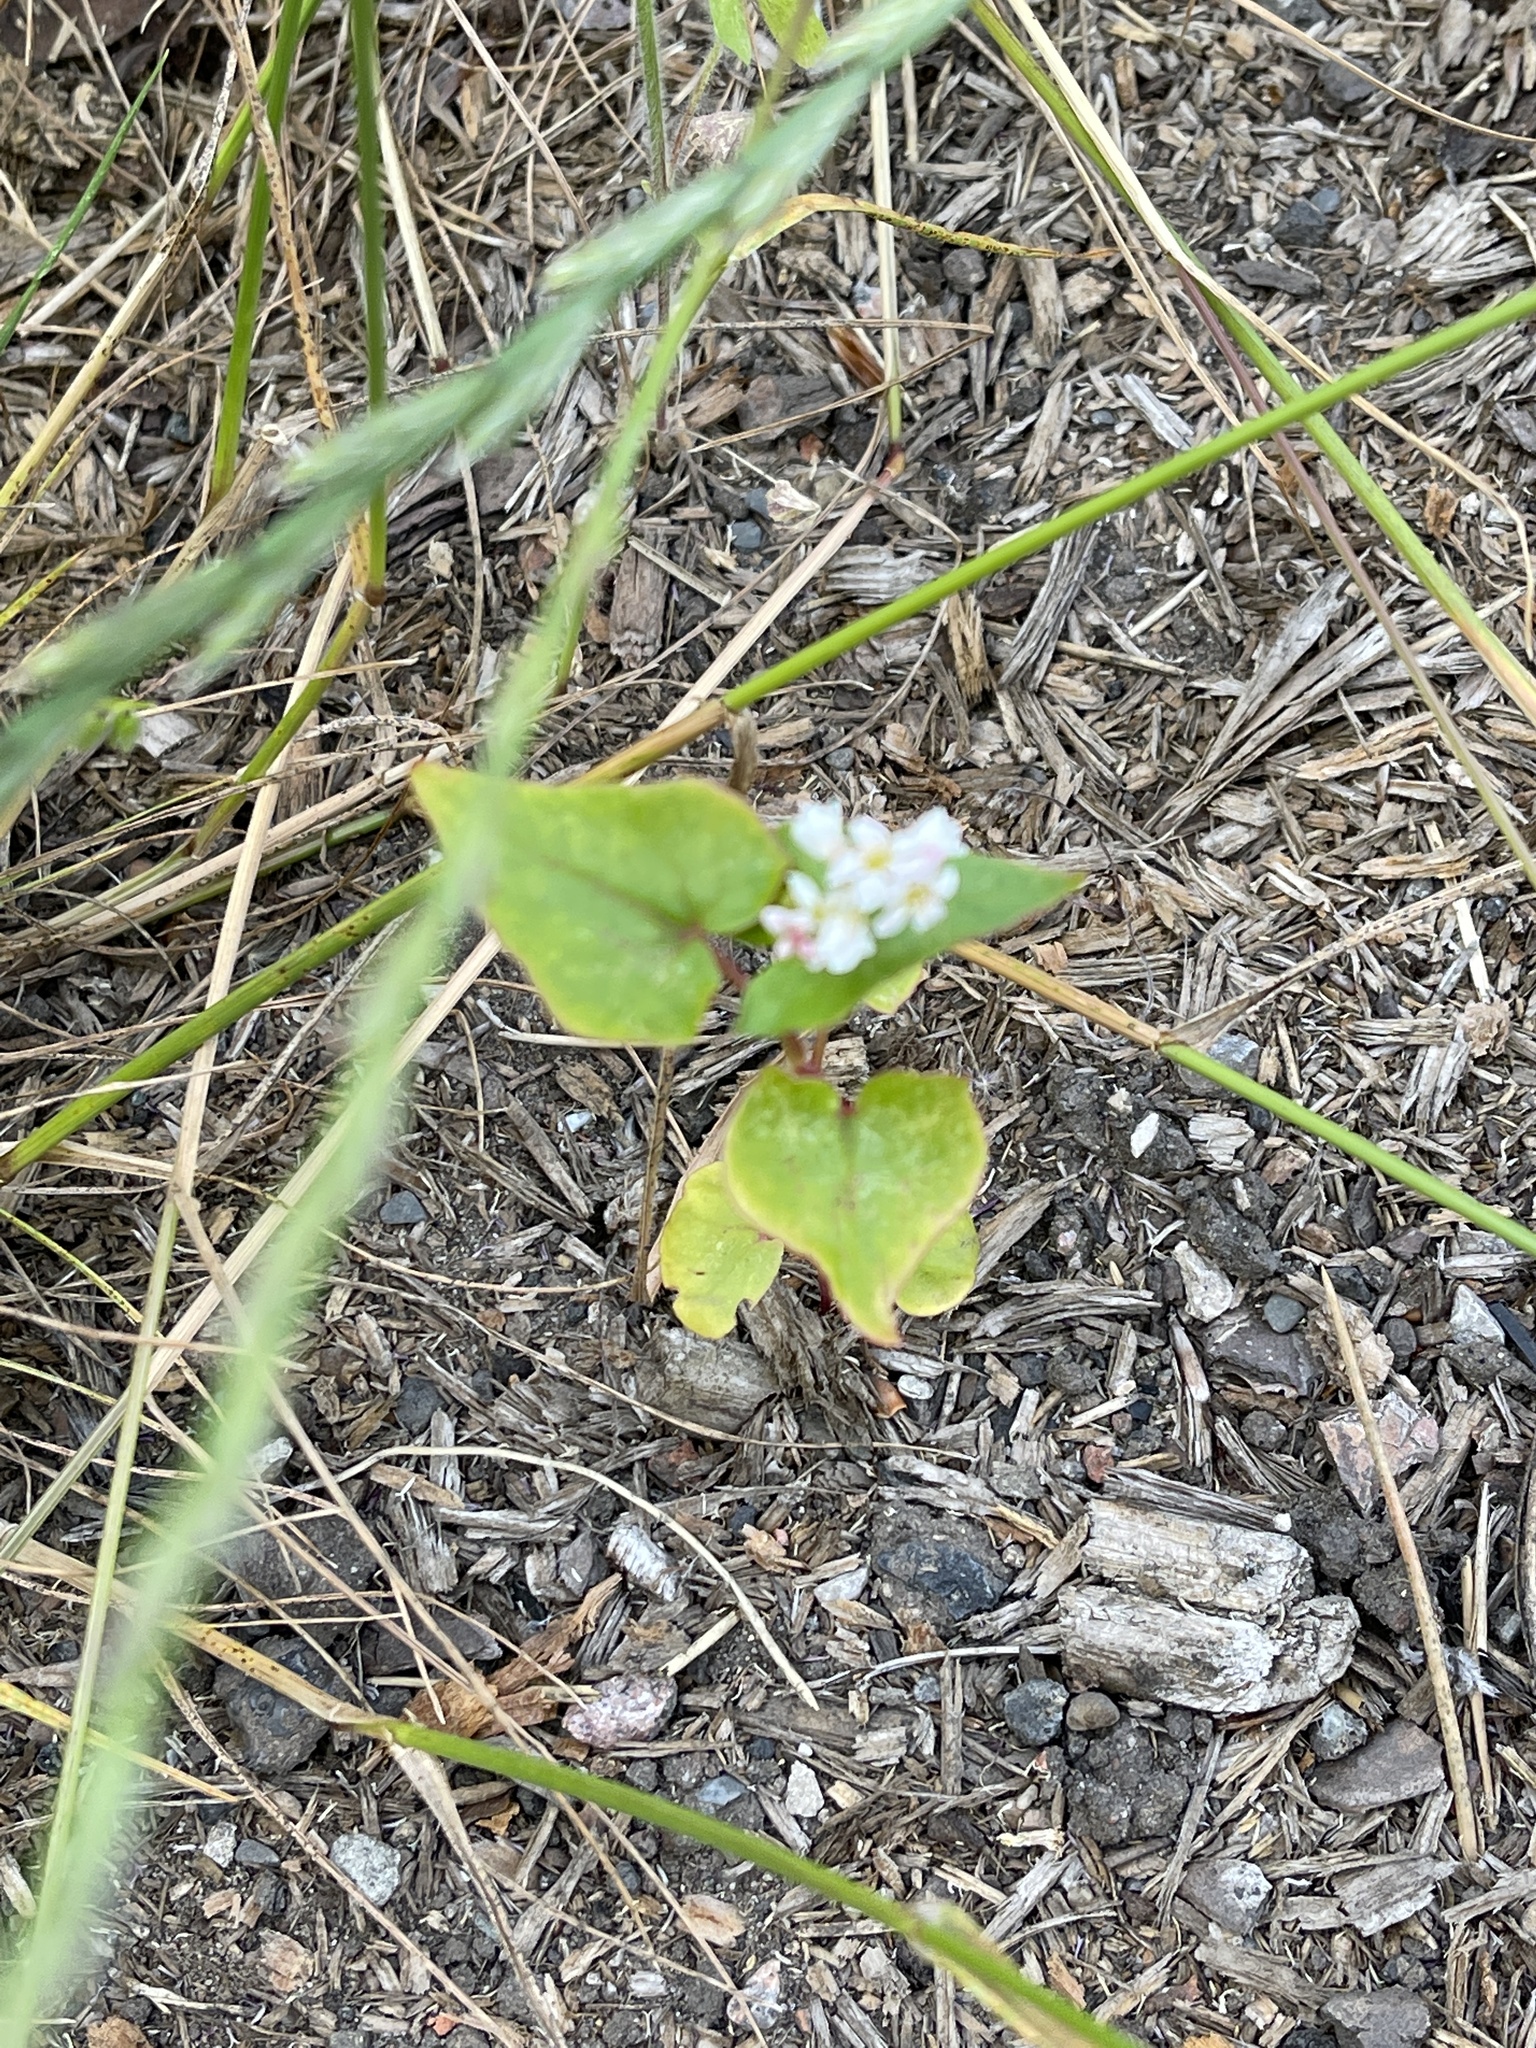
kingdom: Plantae
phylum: Tracheophyta
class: Magnoliopsida
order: Caryophyllales
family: Polygonaceae
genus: Fagopyrum
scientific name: Fagopyrum esculentum
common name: Buckwheat
